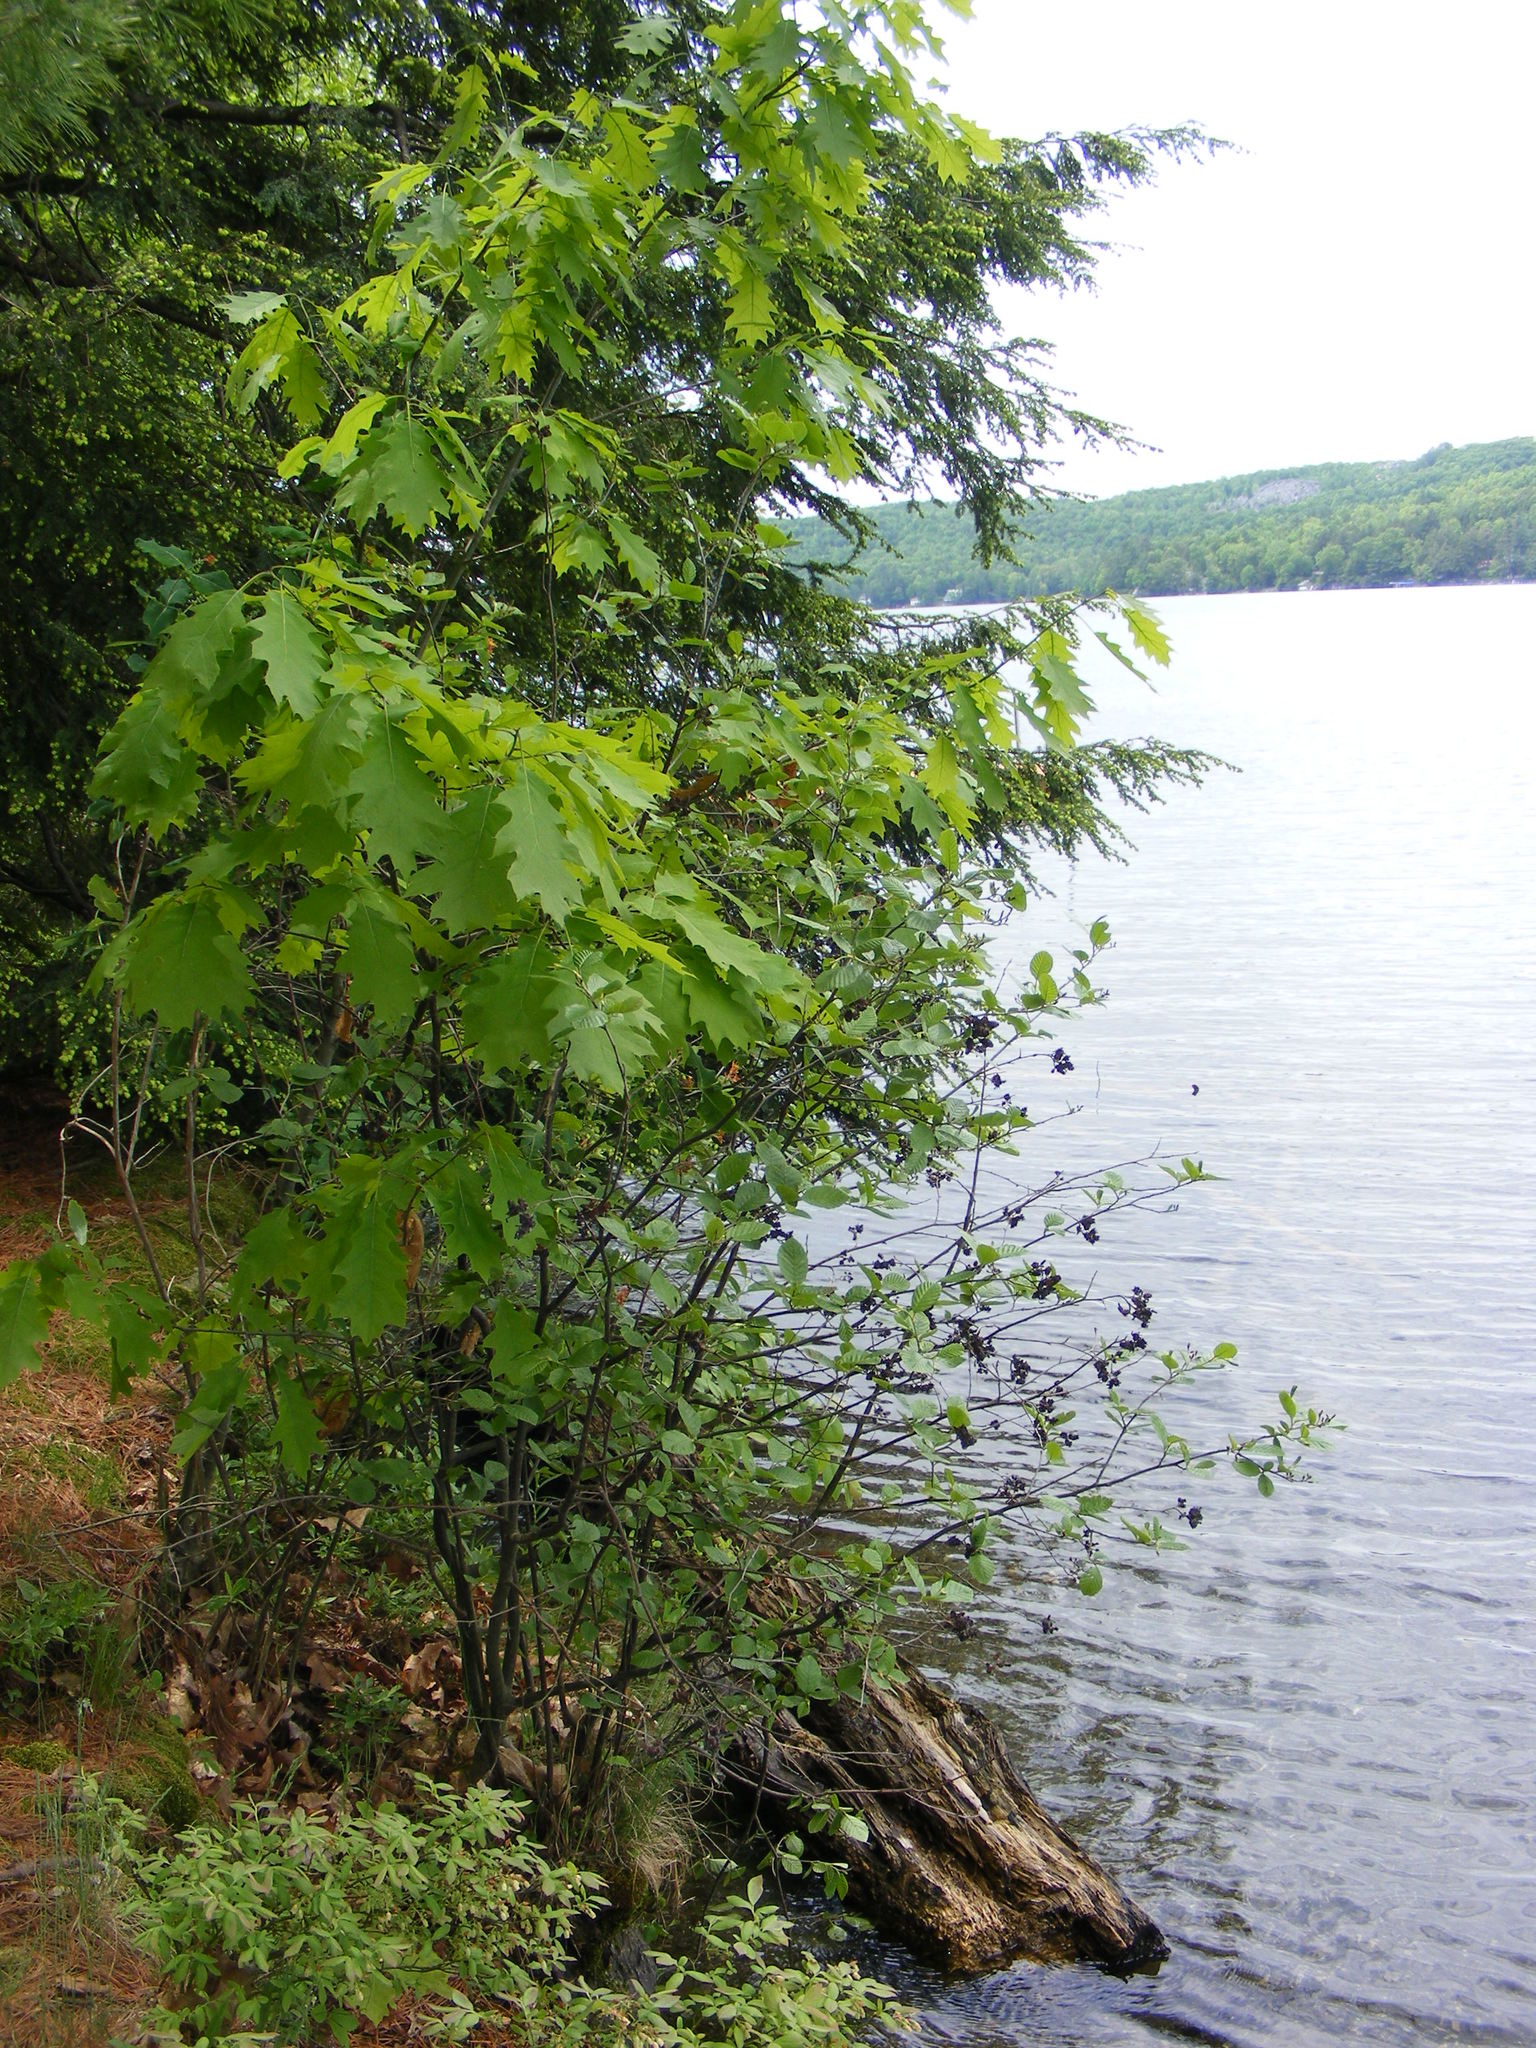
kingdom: Plantae
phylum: Tracheophyta
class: Magnoliopsida
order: Fagales
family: Fagaceae
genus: Quercus
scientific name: Quercus rubra
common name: Red oak
